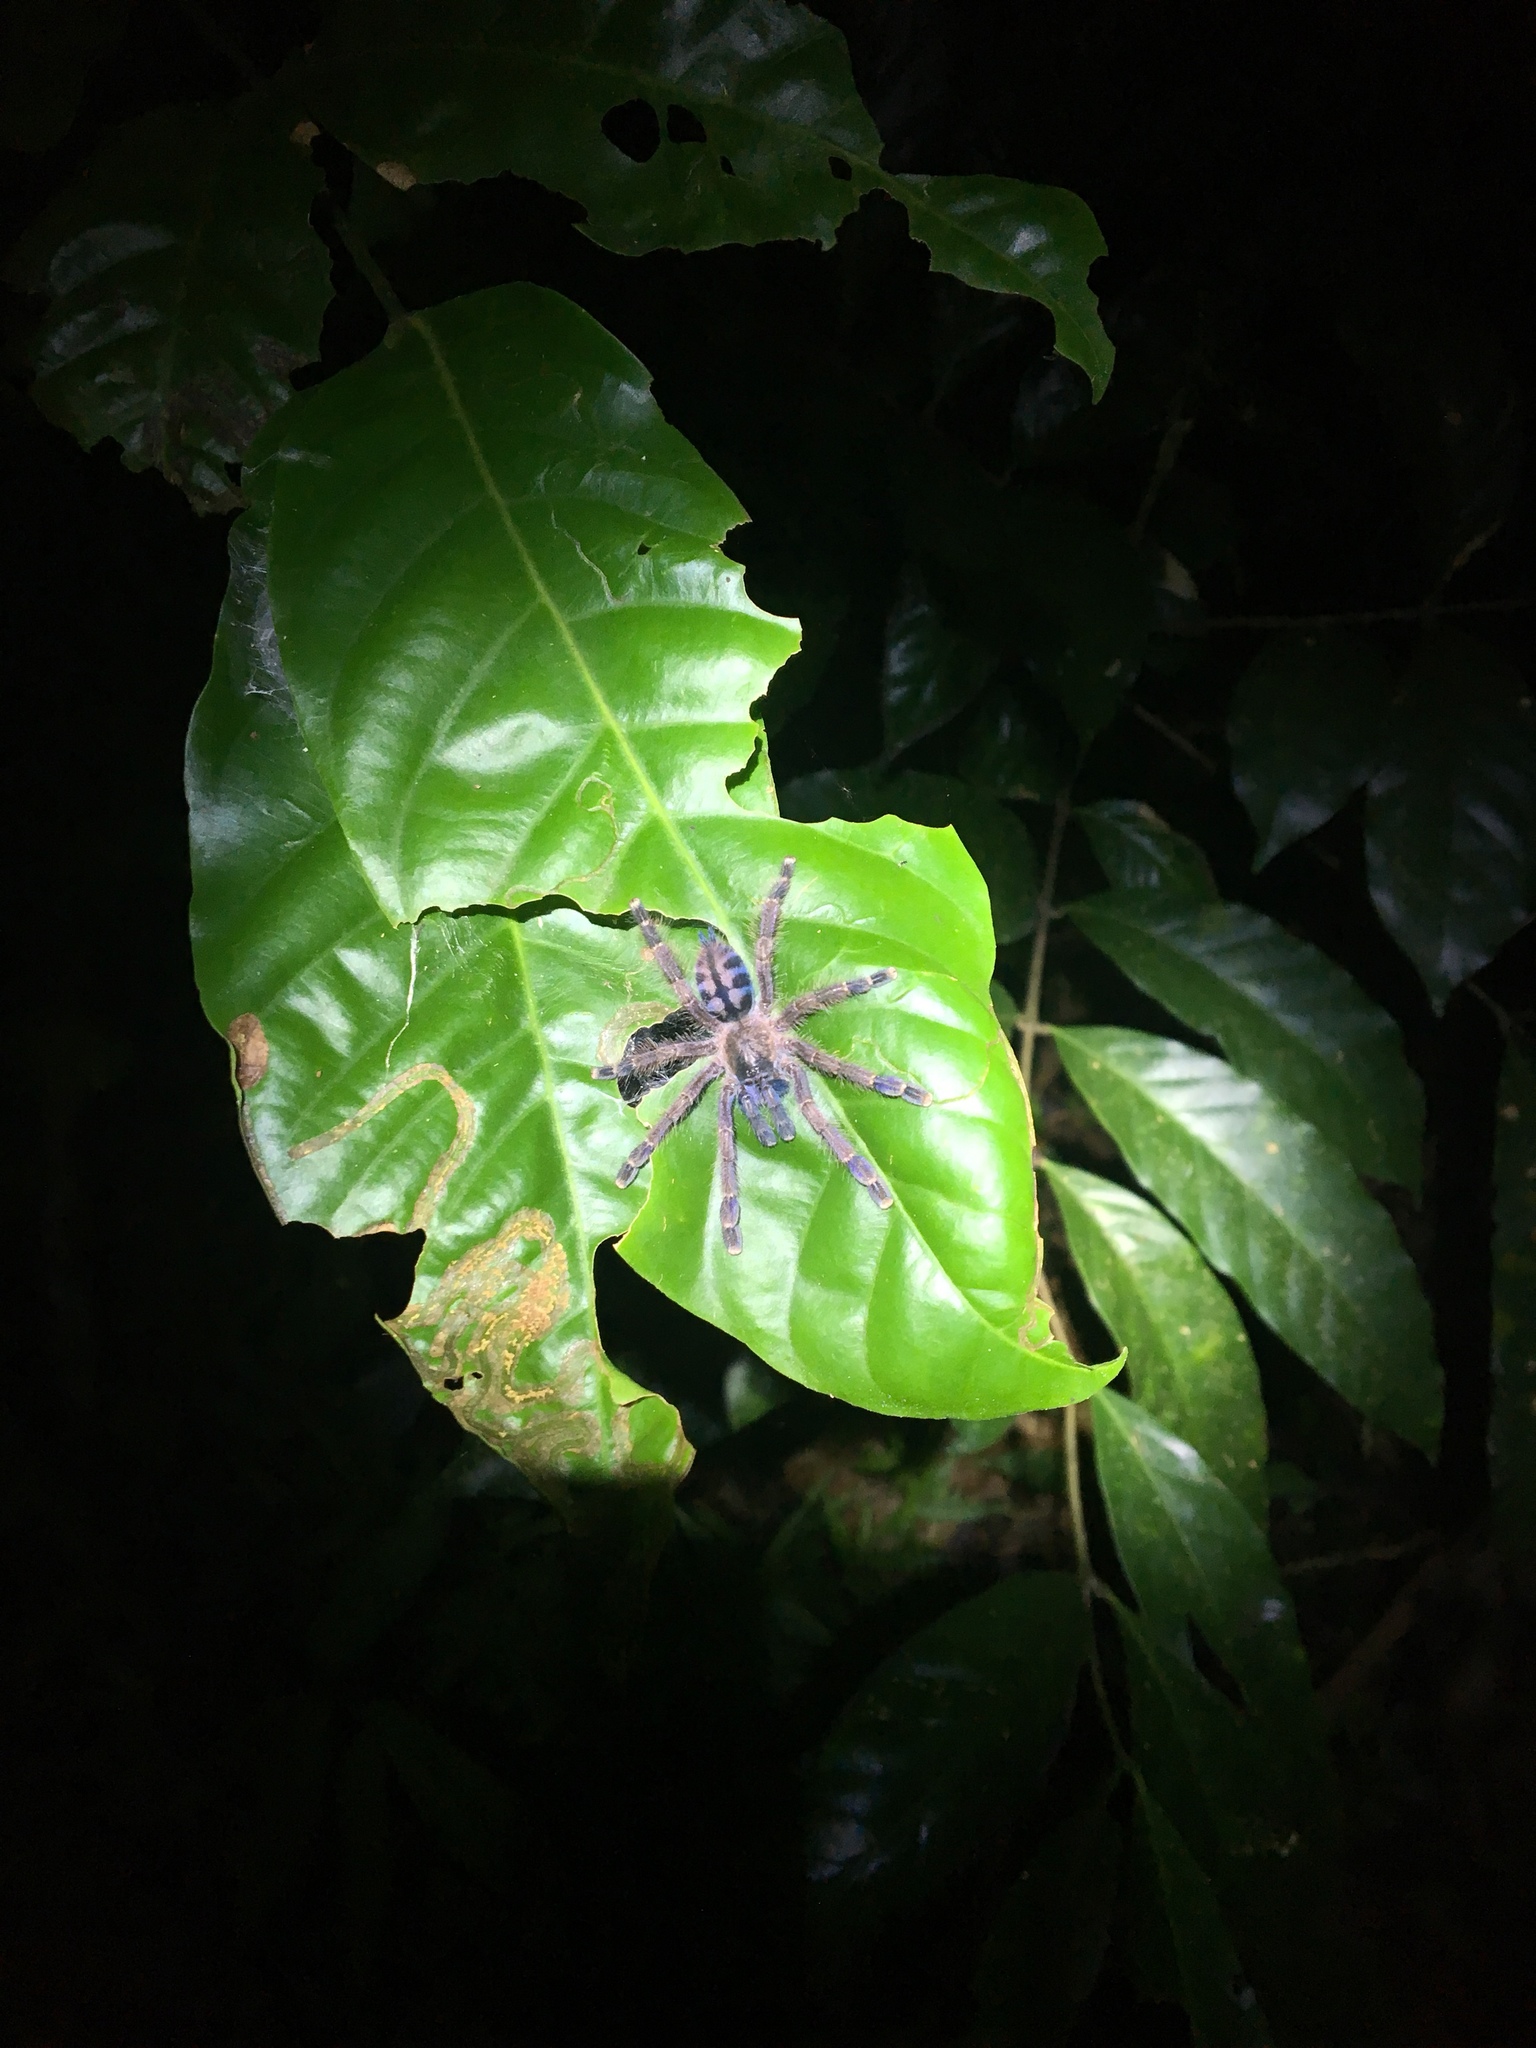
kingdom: Animalia
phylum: Arthropoda
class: Arachnida
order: Araneae
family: Theraphosidae
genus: Caribena
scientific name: Caribena laeta
